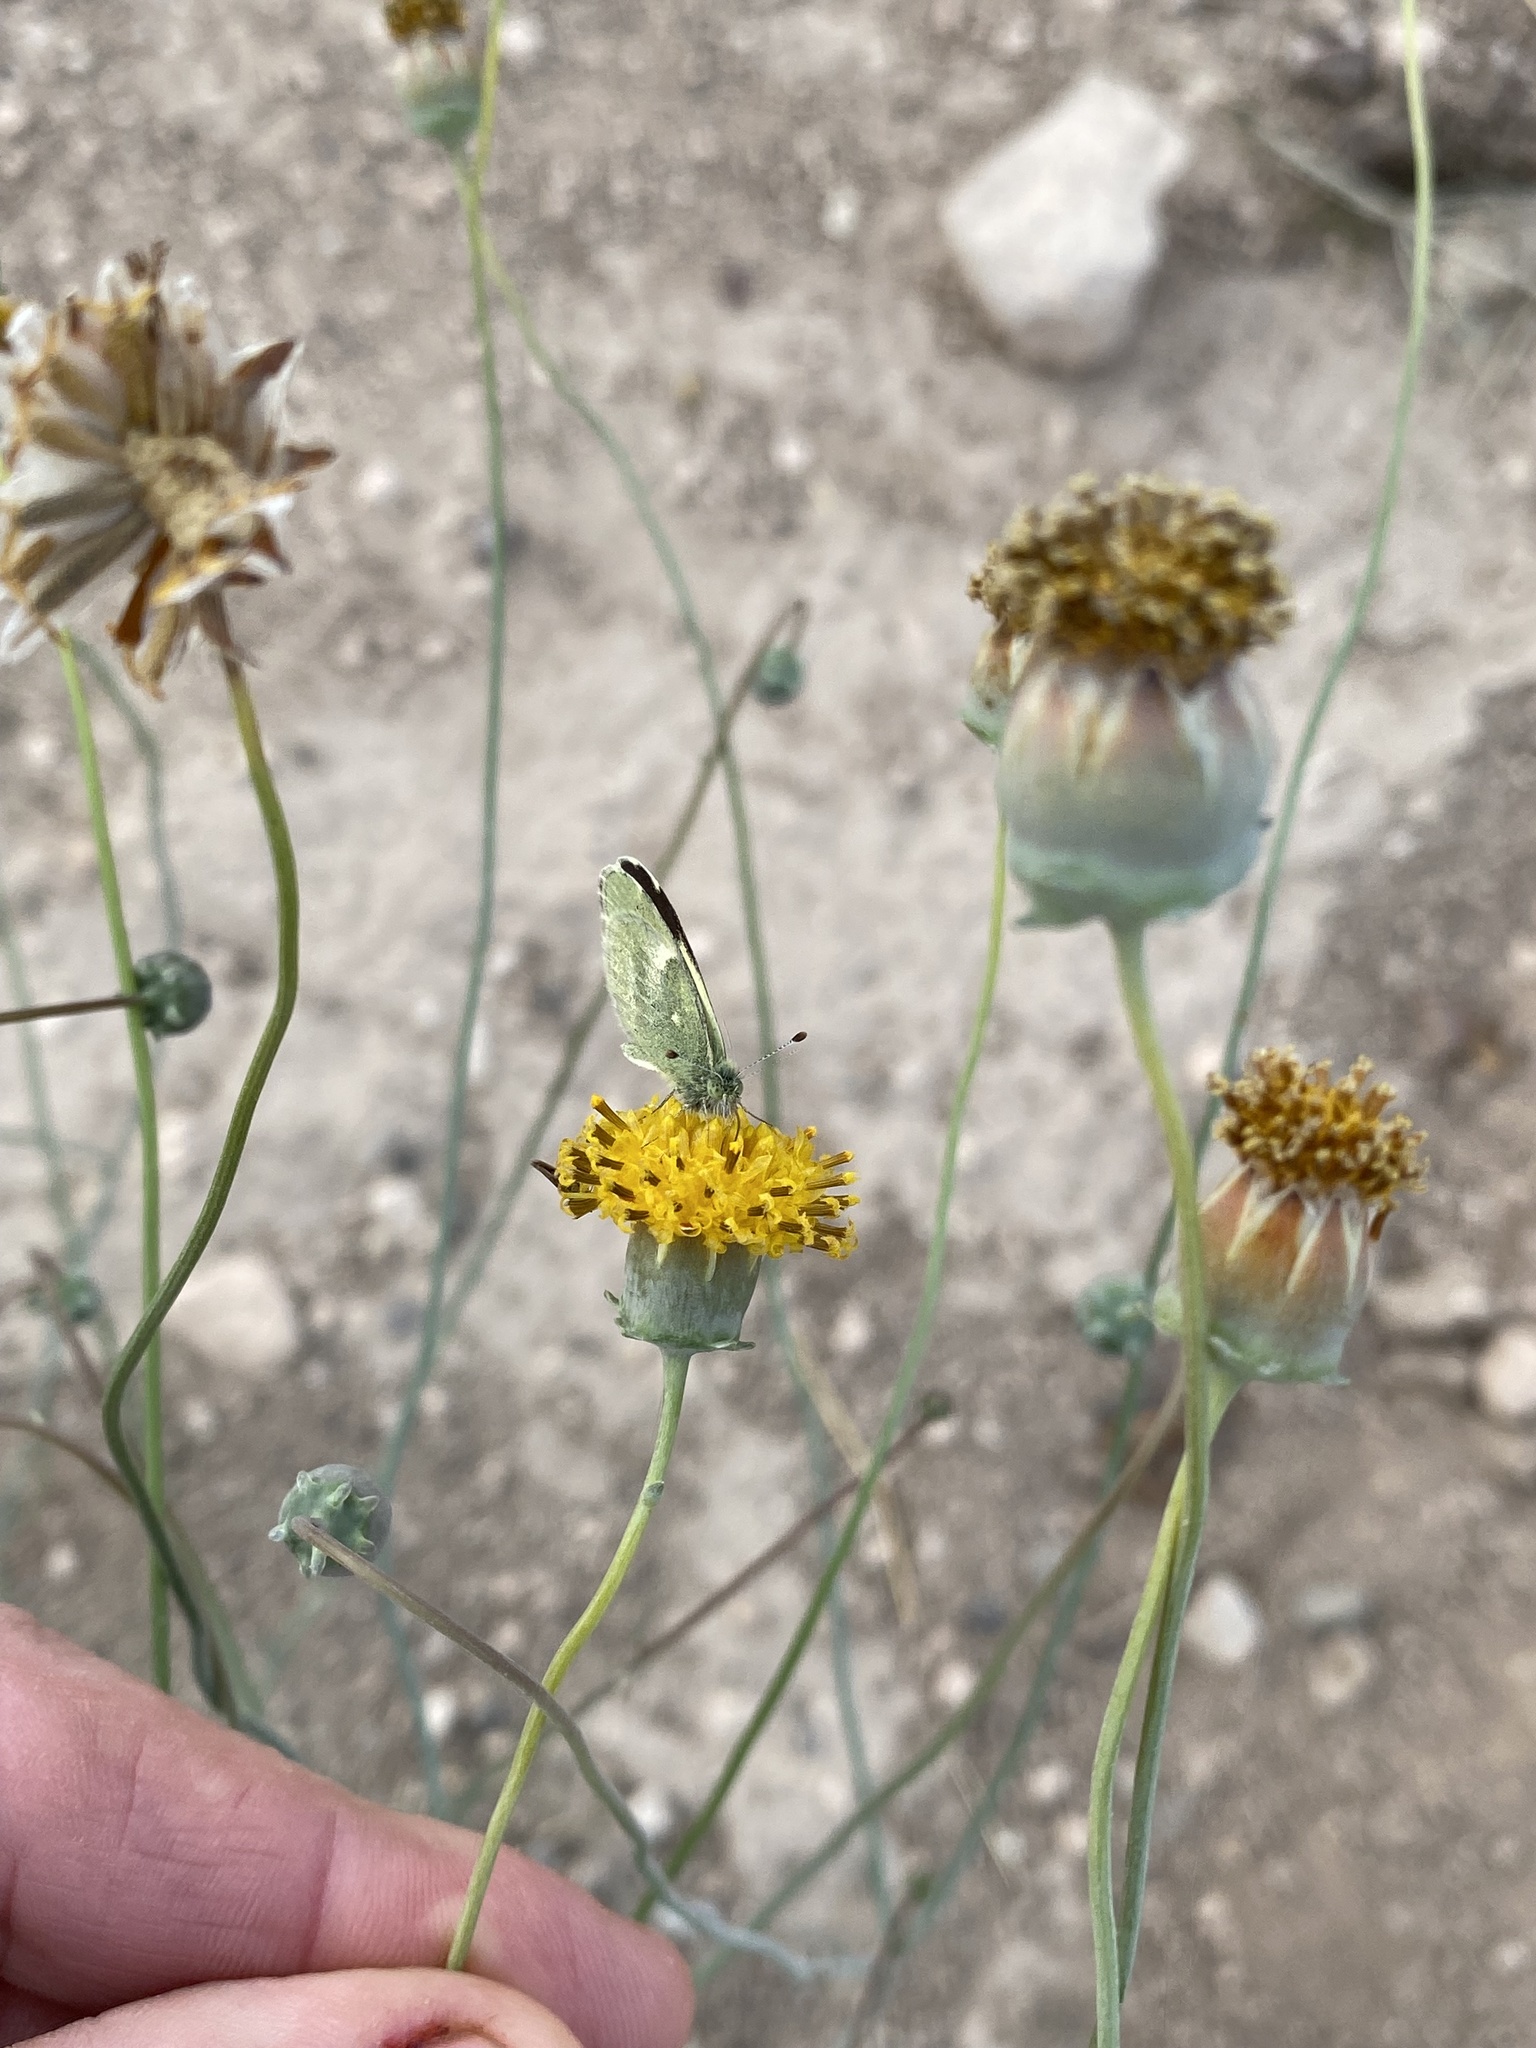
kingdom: Plantae
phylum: Tracheophyta
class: Magnoliopsida
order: Asterales
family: Asteraceae
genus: Thelesperma
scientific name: Thelesperma megapotamicum
